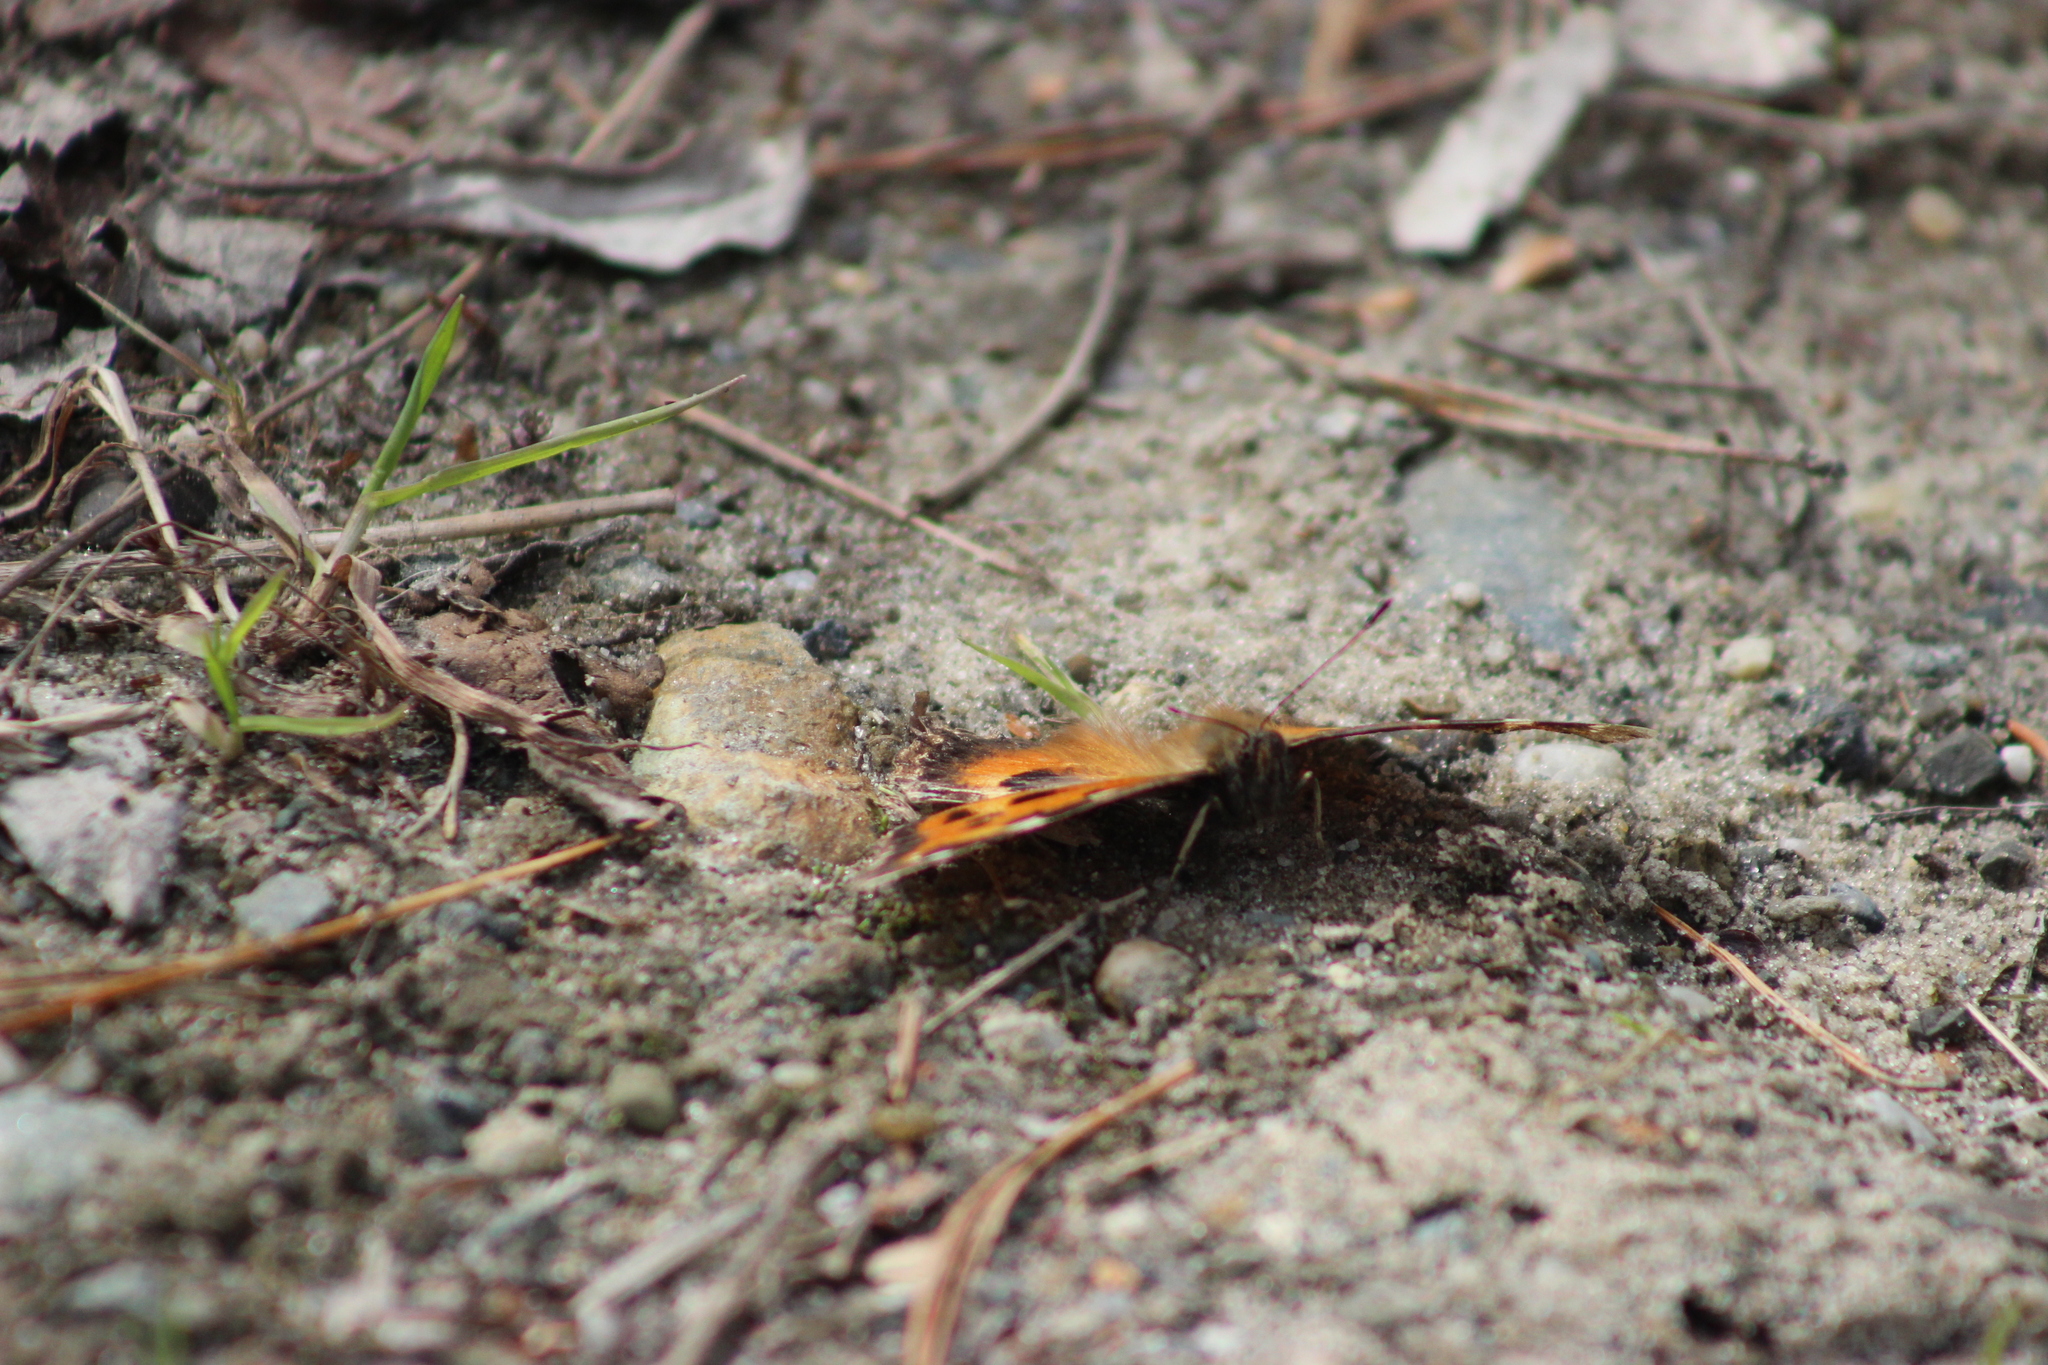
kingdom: Animalia
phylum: Arthropoda
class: Insecta
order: Lepidoptera
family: Nymphalidae
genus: Nymphalis
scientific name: Nymphalis xanthomelas
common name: Scarce tortoiseshell
